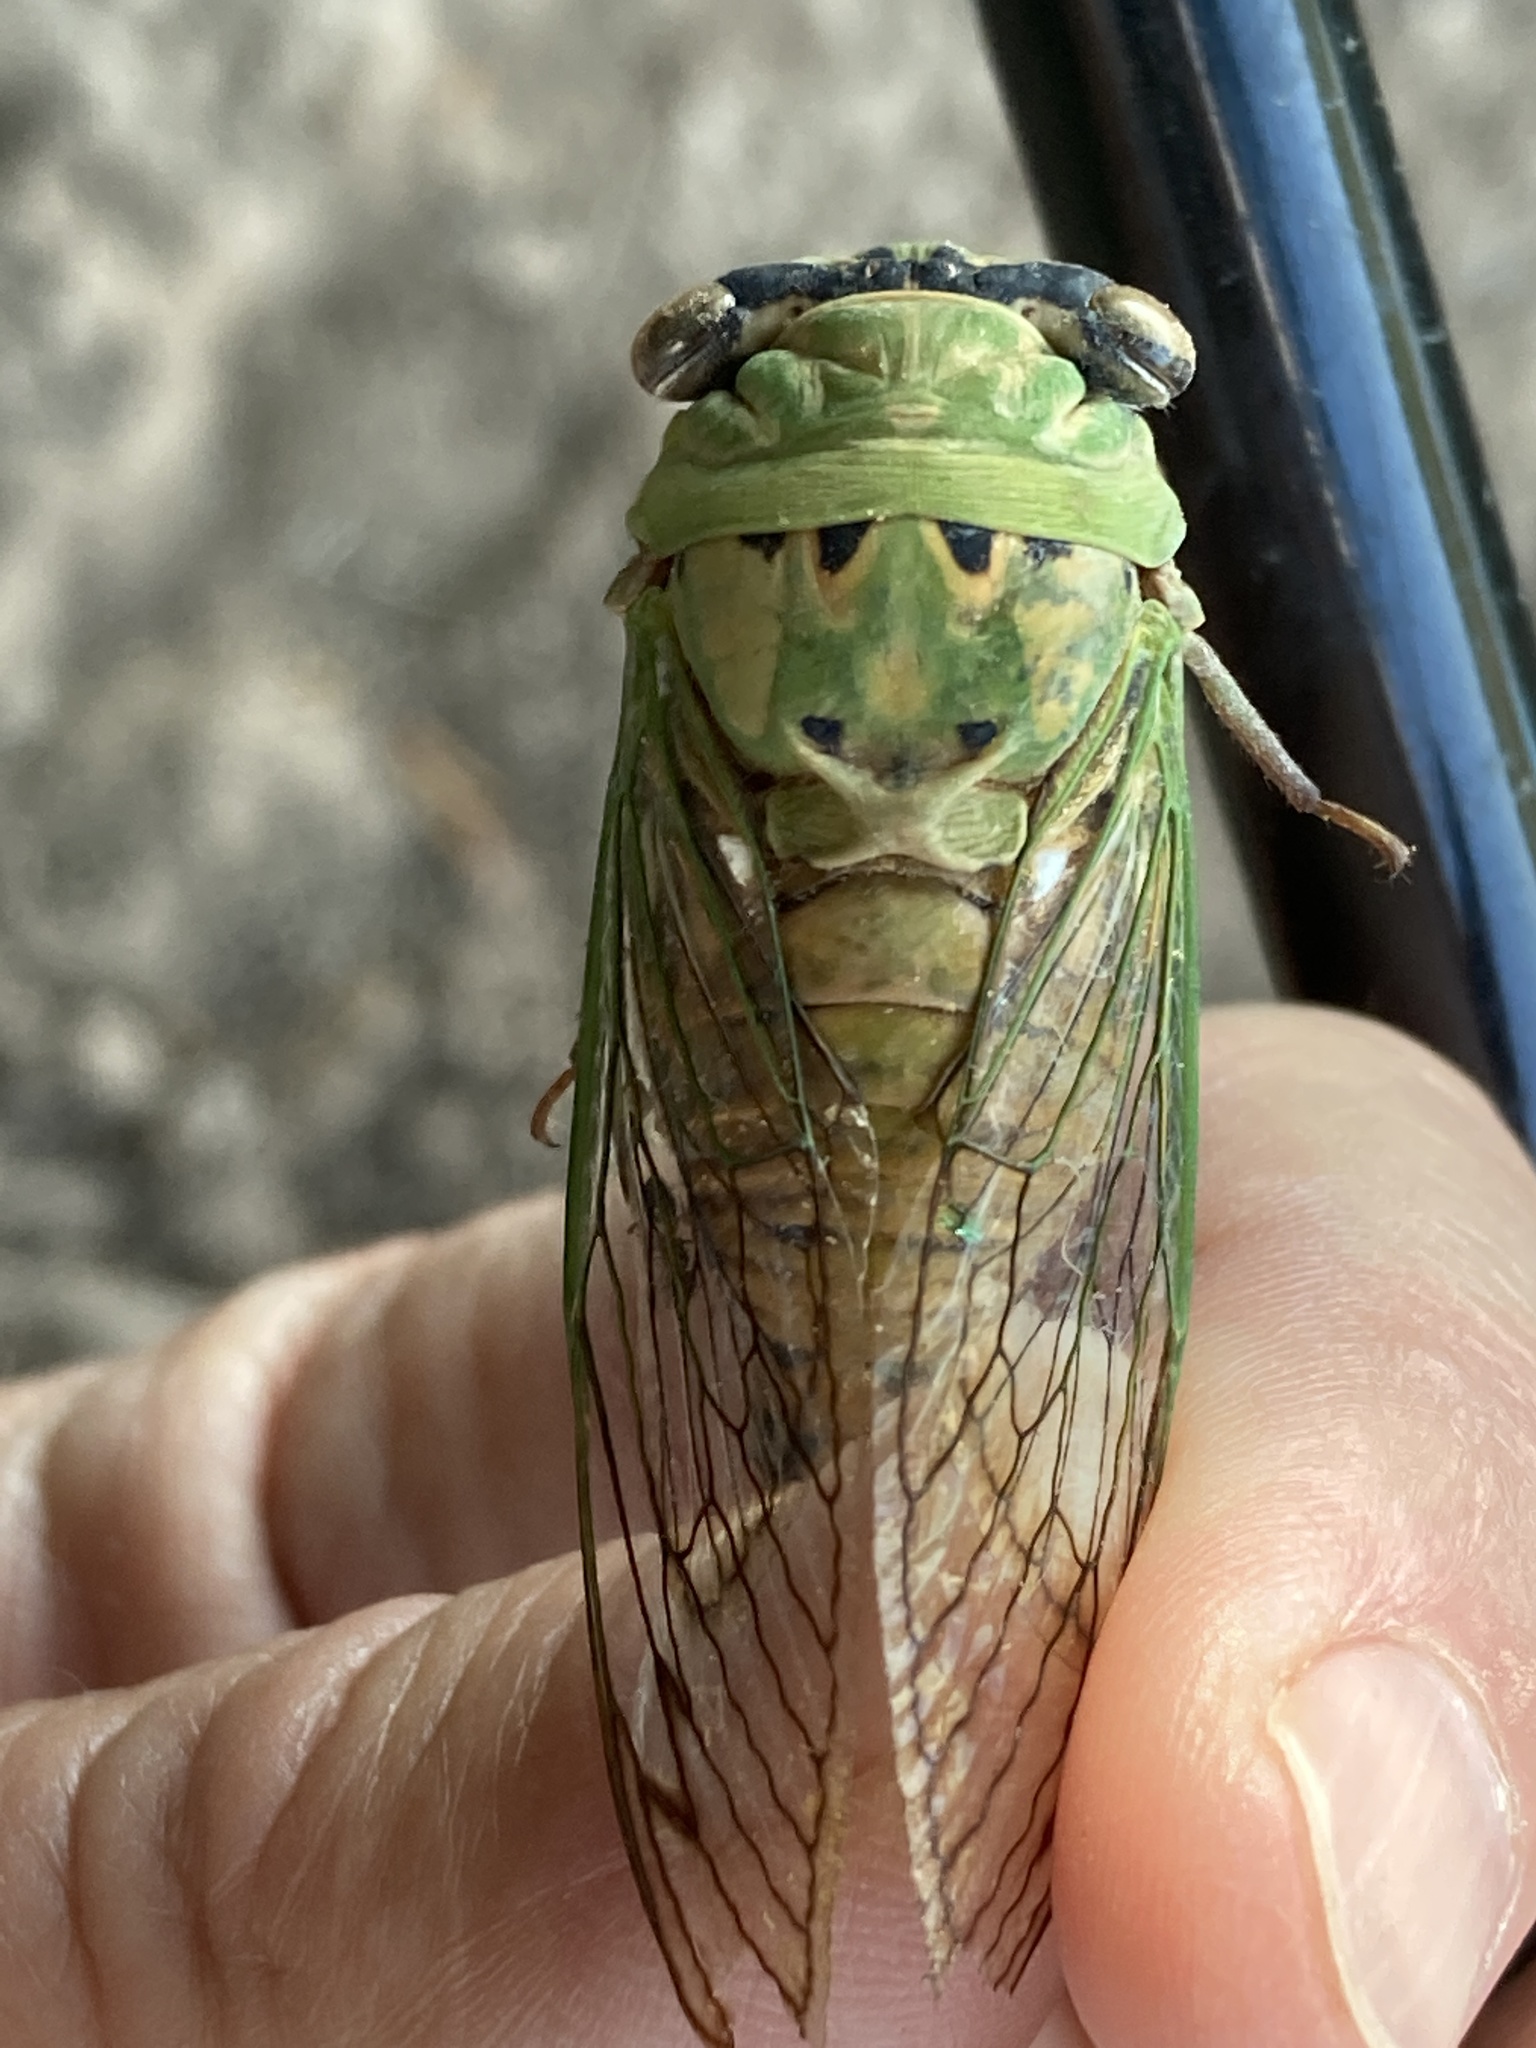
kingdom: Animalia
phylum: Arthropoda
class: Insecta
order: Hemiptera
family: Cicadidae
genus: Neotibicen
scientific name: Neotibicen superbus
